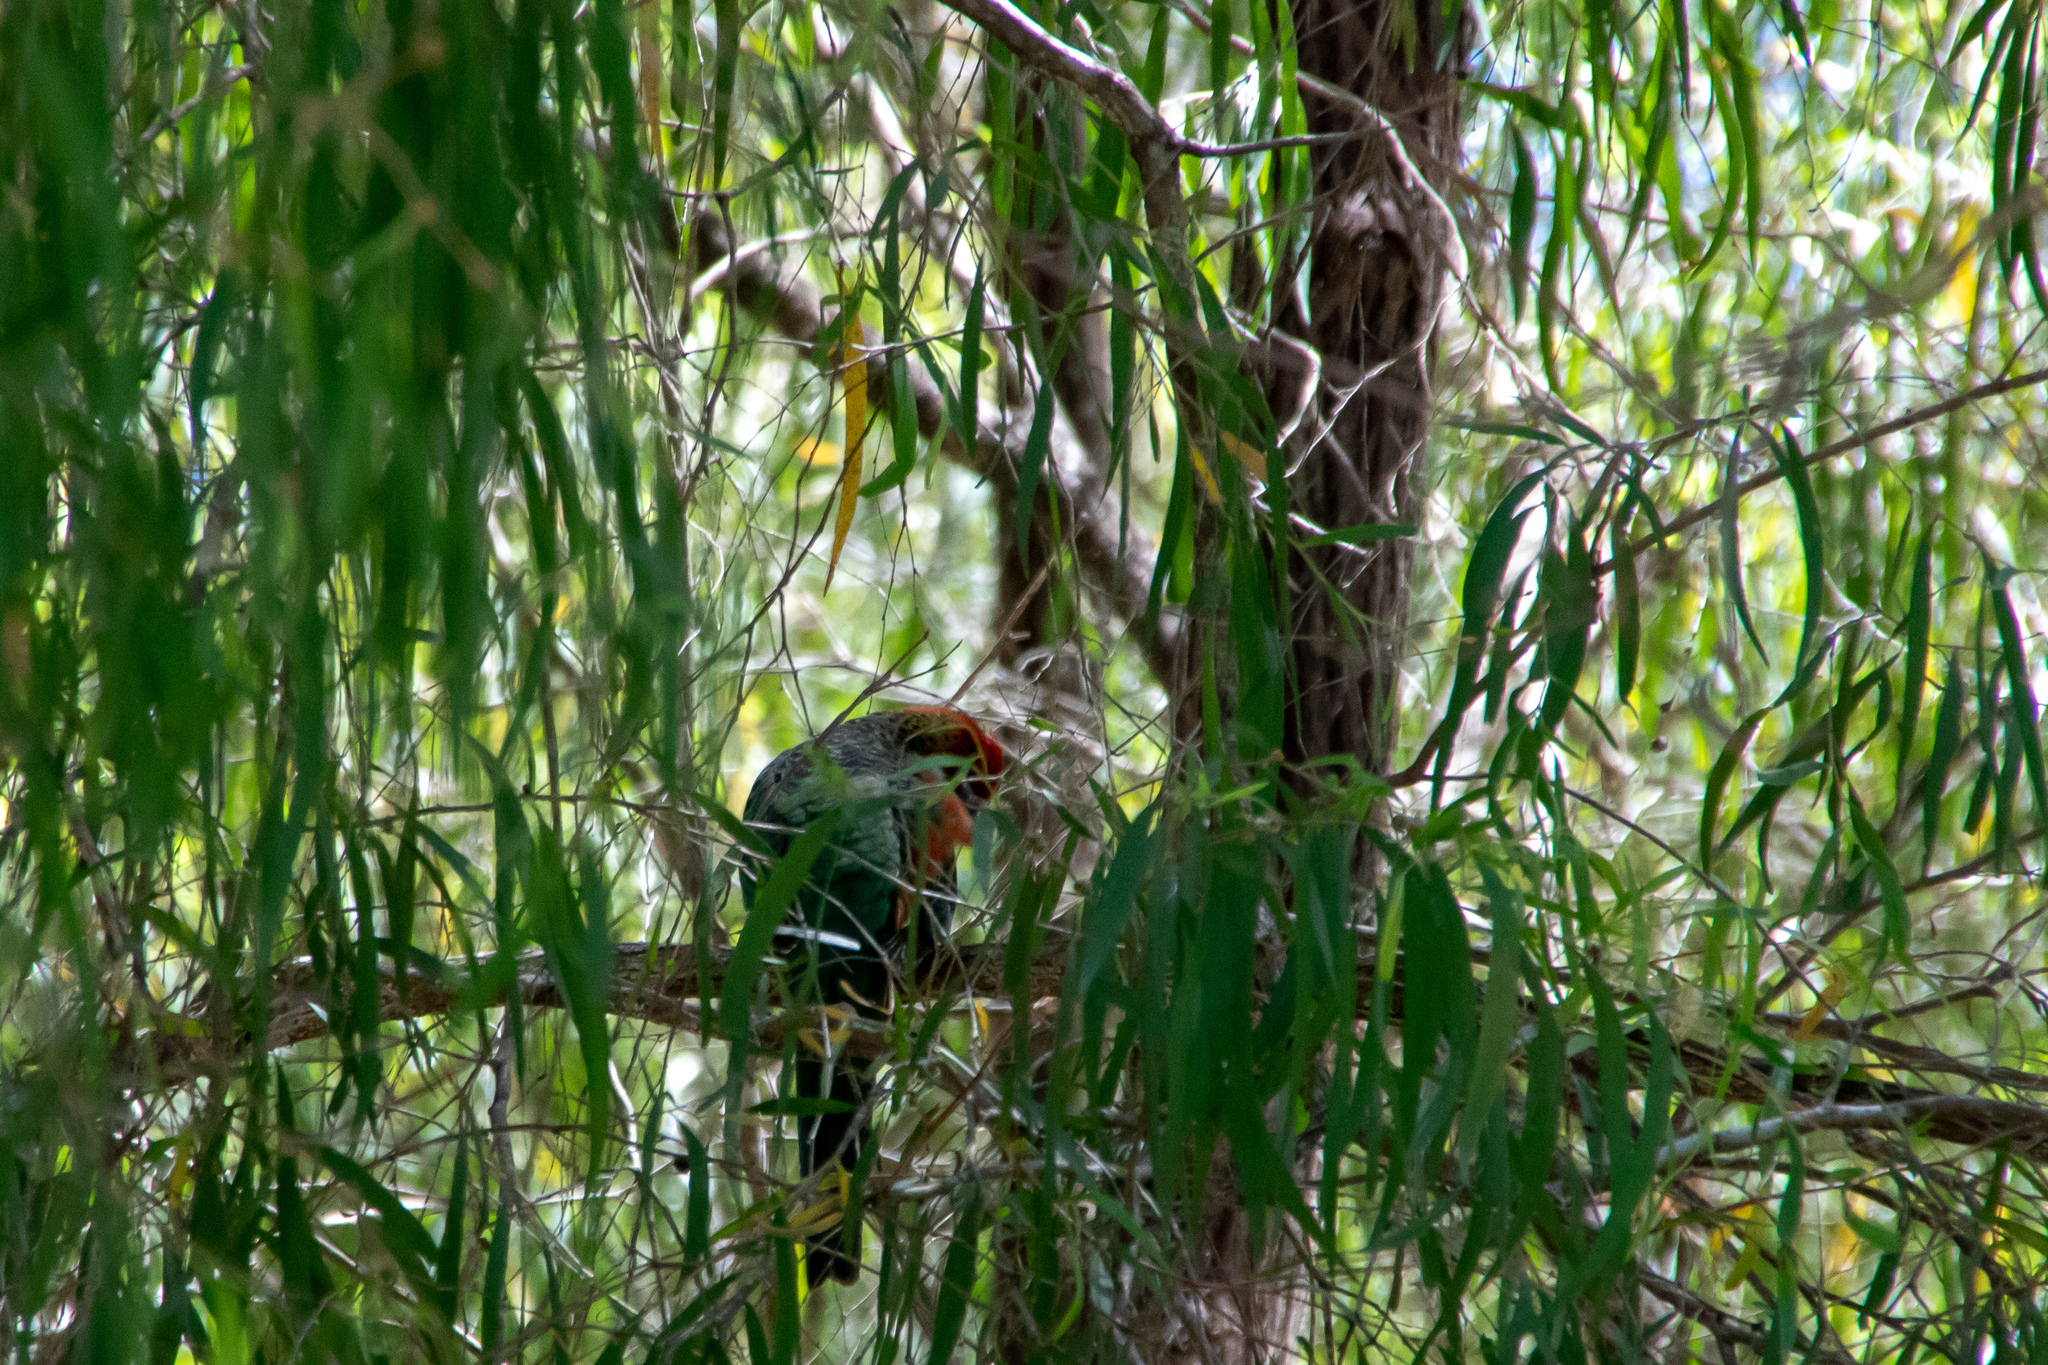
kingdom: Animalia
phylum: Chordata
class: Aves
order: Psittaciformes
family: Psittacidae
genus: Platycercus
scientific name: Platycercus icterotis
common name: Western rosella
